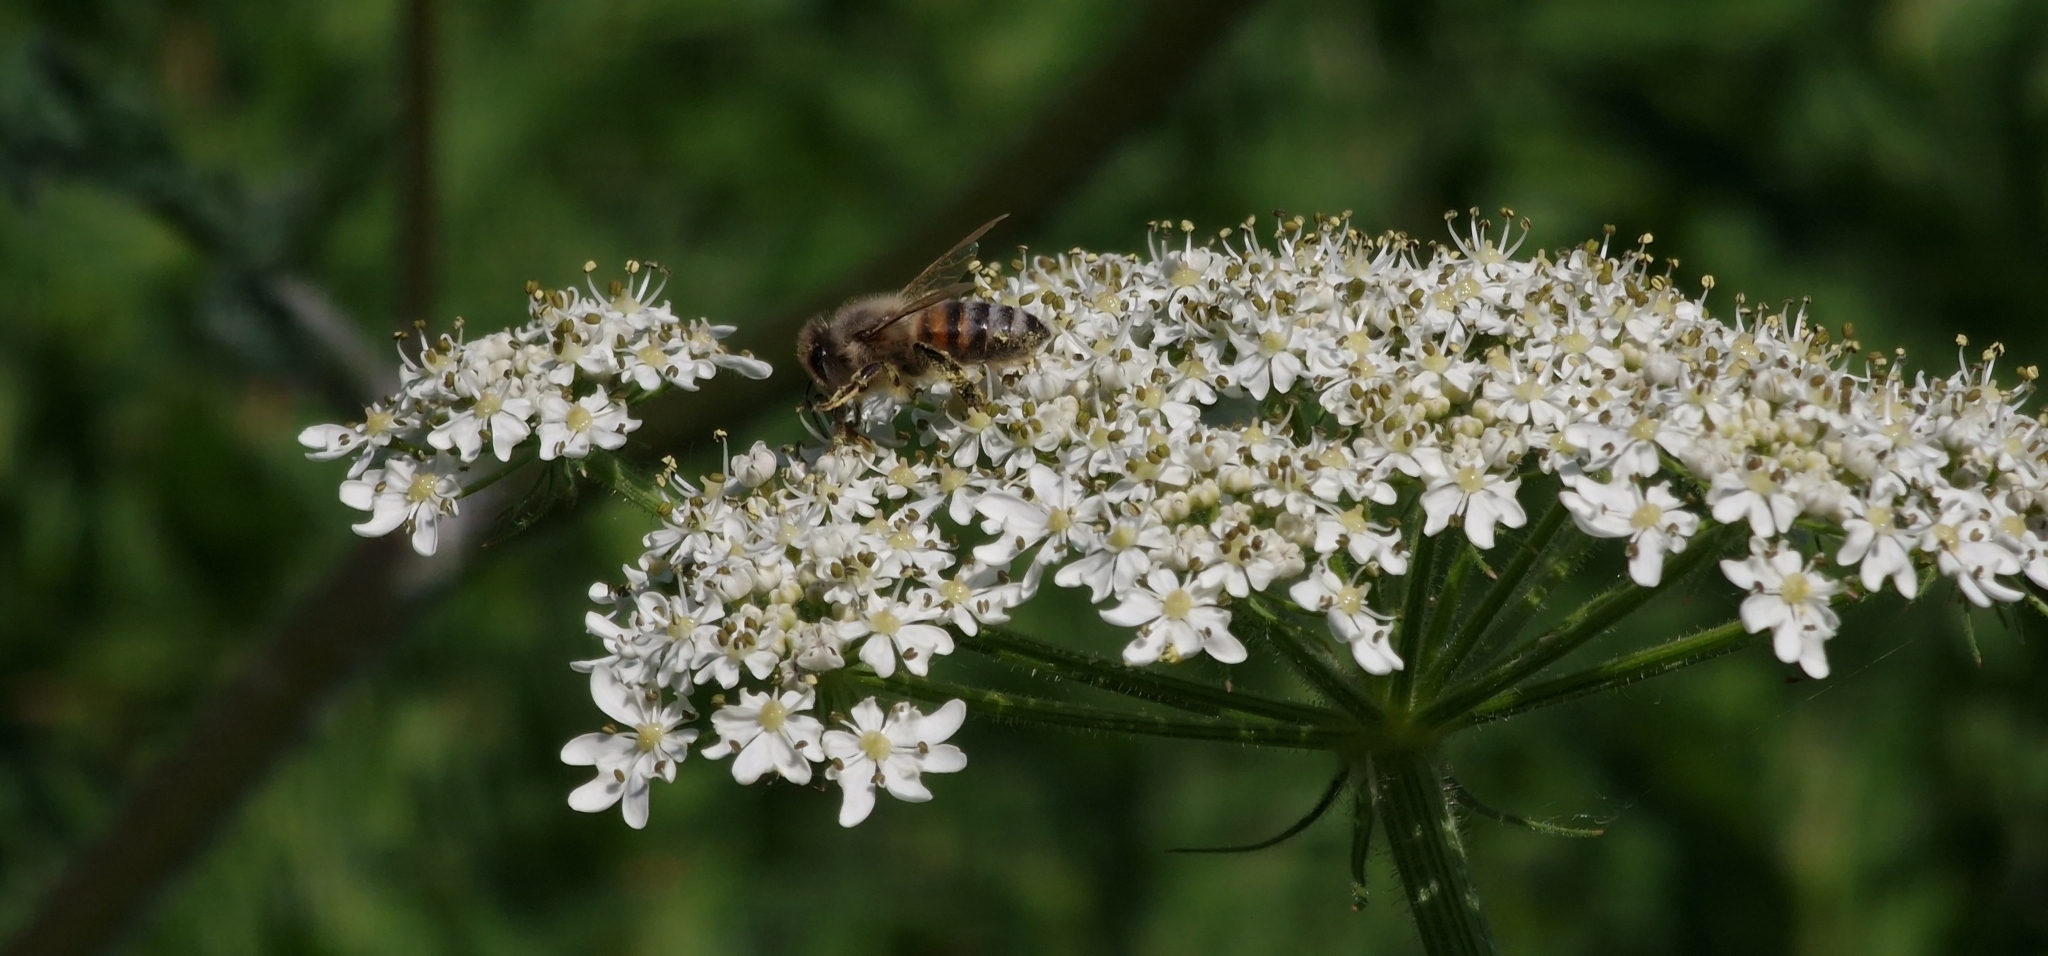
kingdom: Animalia
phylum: Arthropoda
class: Insecta
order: Hymenoptera
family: Apidae
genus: Apis
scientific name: Apis mellifera
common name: Honey bee
